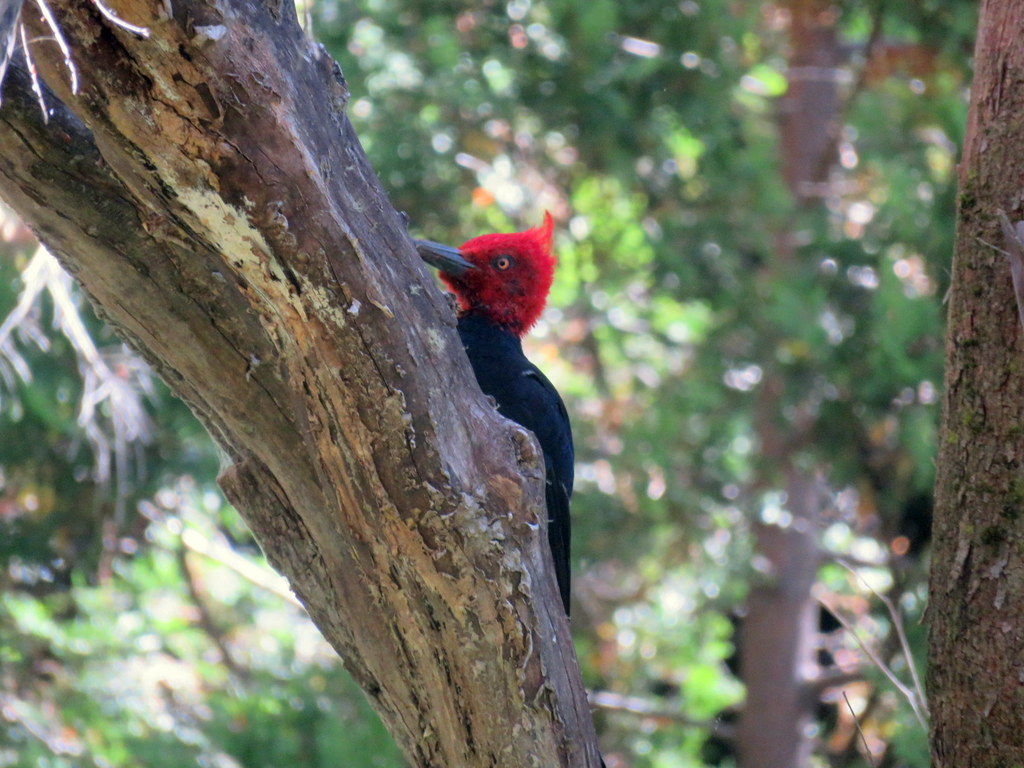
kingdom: Animalia
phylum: Chordata
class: Aves
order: Piciformes
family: Picidae
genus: Campephilus
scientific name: Campephilus magellanicus
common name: Magellanic woodpecker
